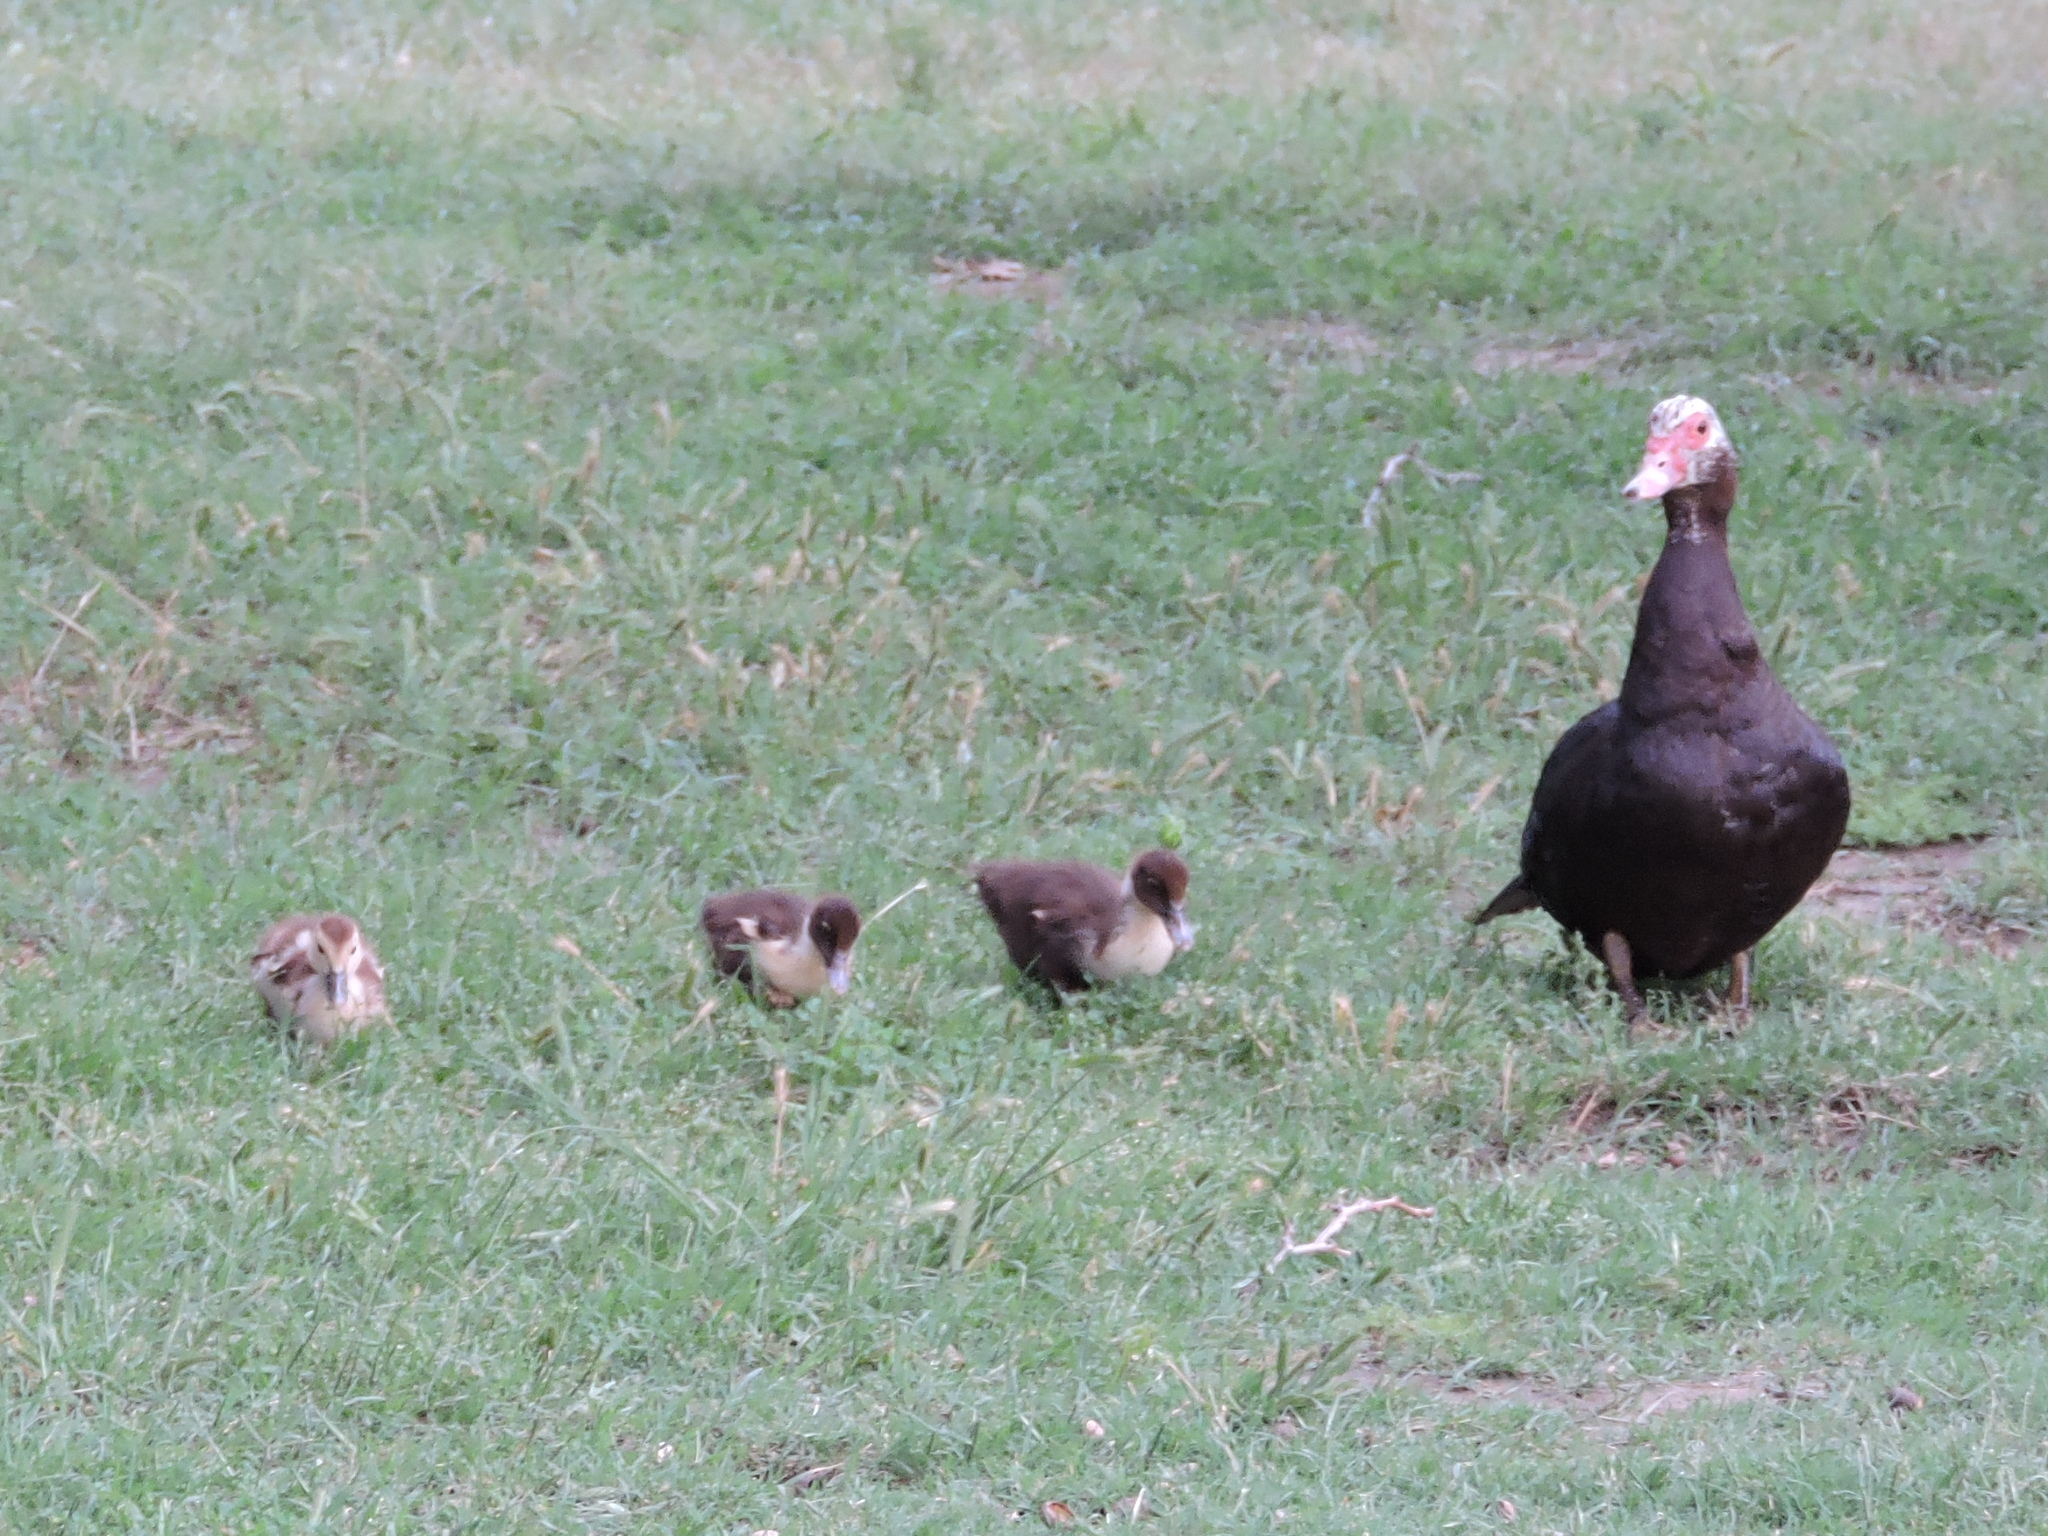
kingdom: Animalia
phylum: Chordata
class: Aves
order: Anseriformes
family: Anatidae
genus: Cairina
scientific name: Cairina moschata
